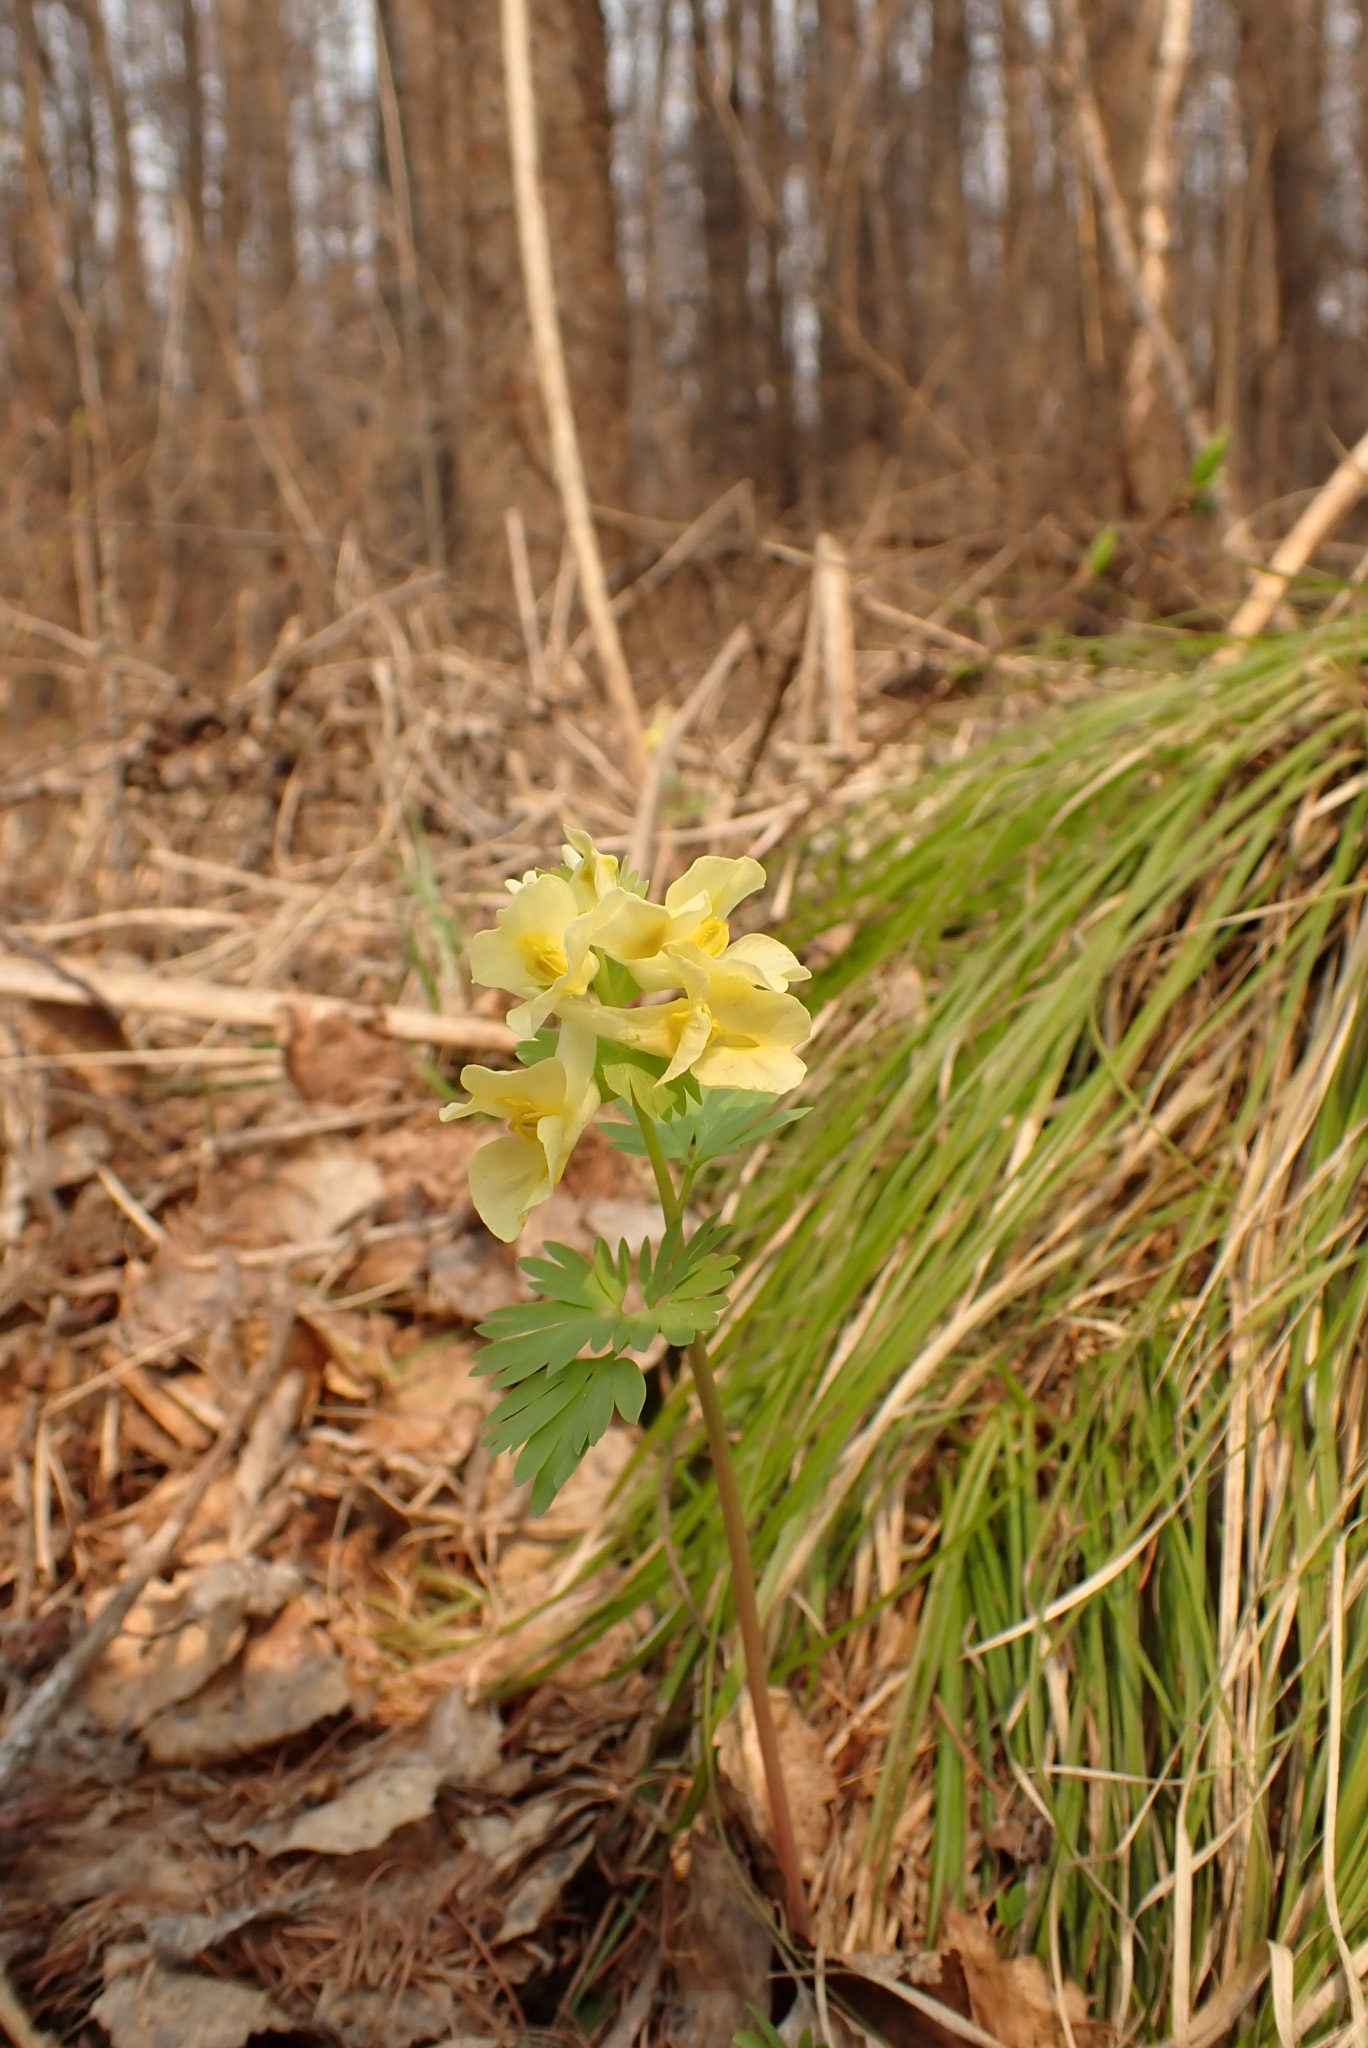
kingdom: Plantae
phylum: Tracheophyta
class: Magnoliopsida
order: Ranunculales
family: Papaveraceae
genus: Corydalis
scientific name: Corydalis bracteata
